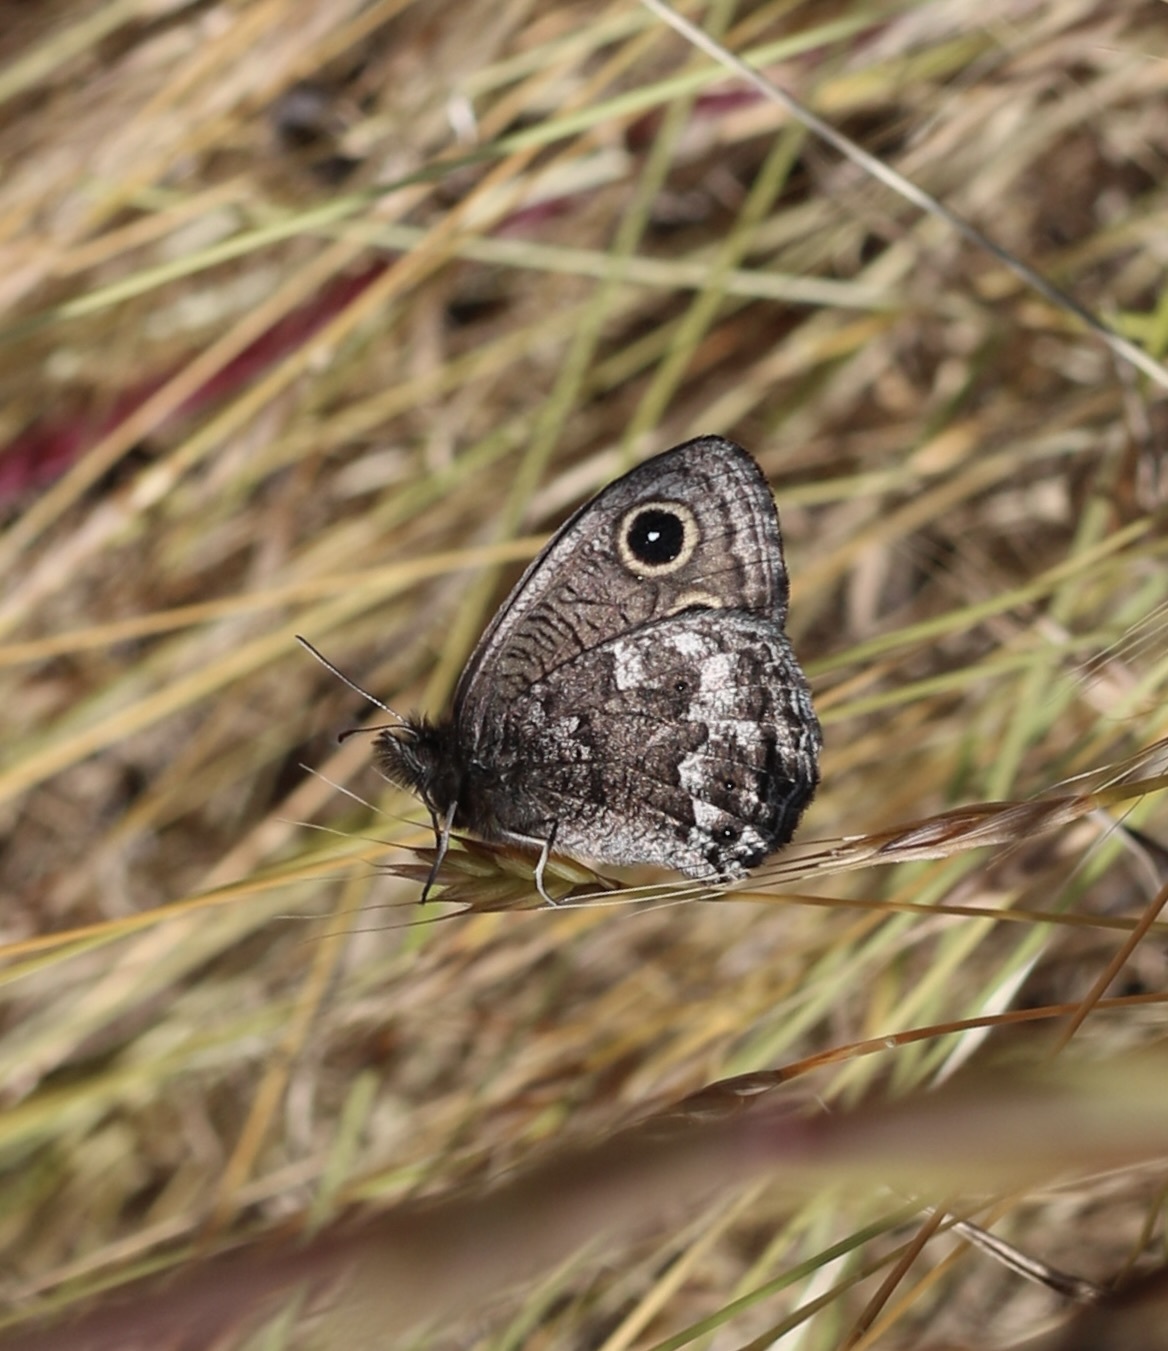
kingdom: Animalia
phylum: Arthropoda
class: Insecta
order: Lepidoptera
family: Nymphalidae
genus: Cercyonis
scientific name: Cercyonis
